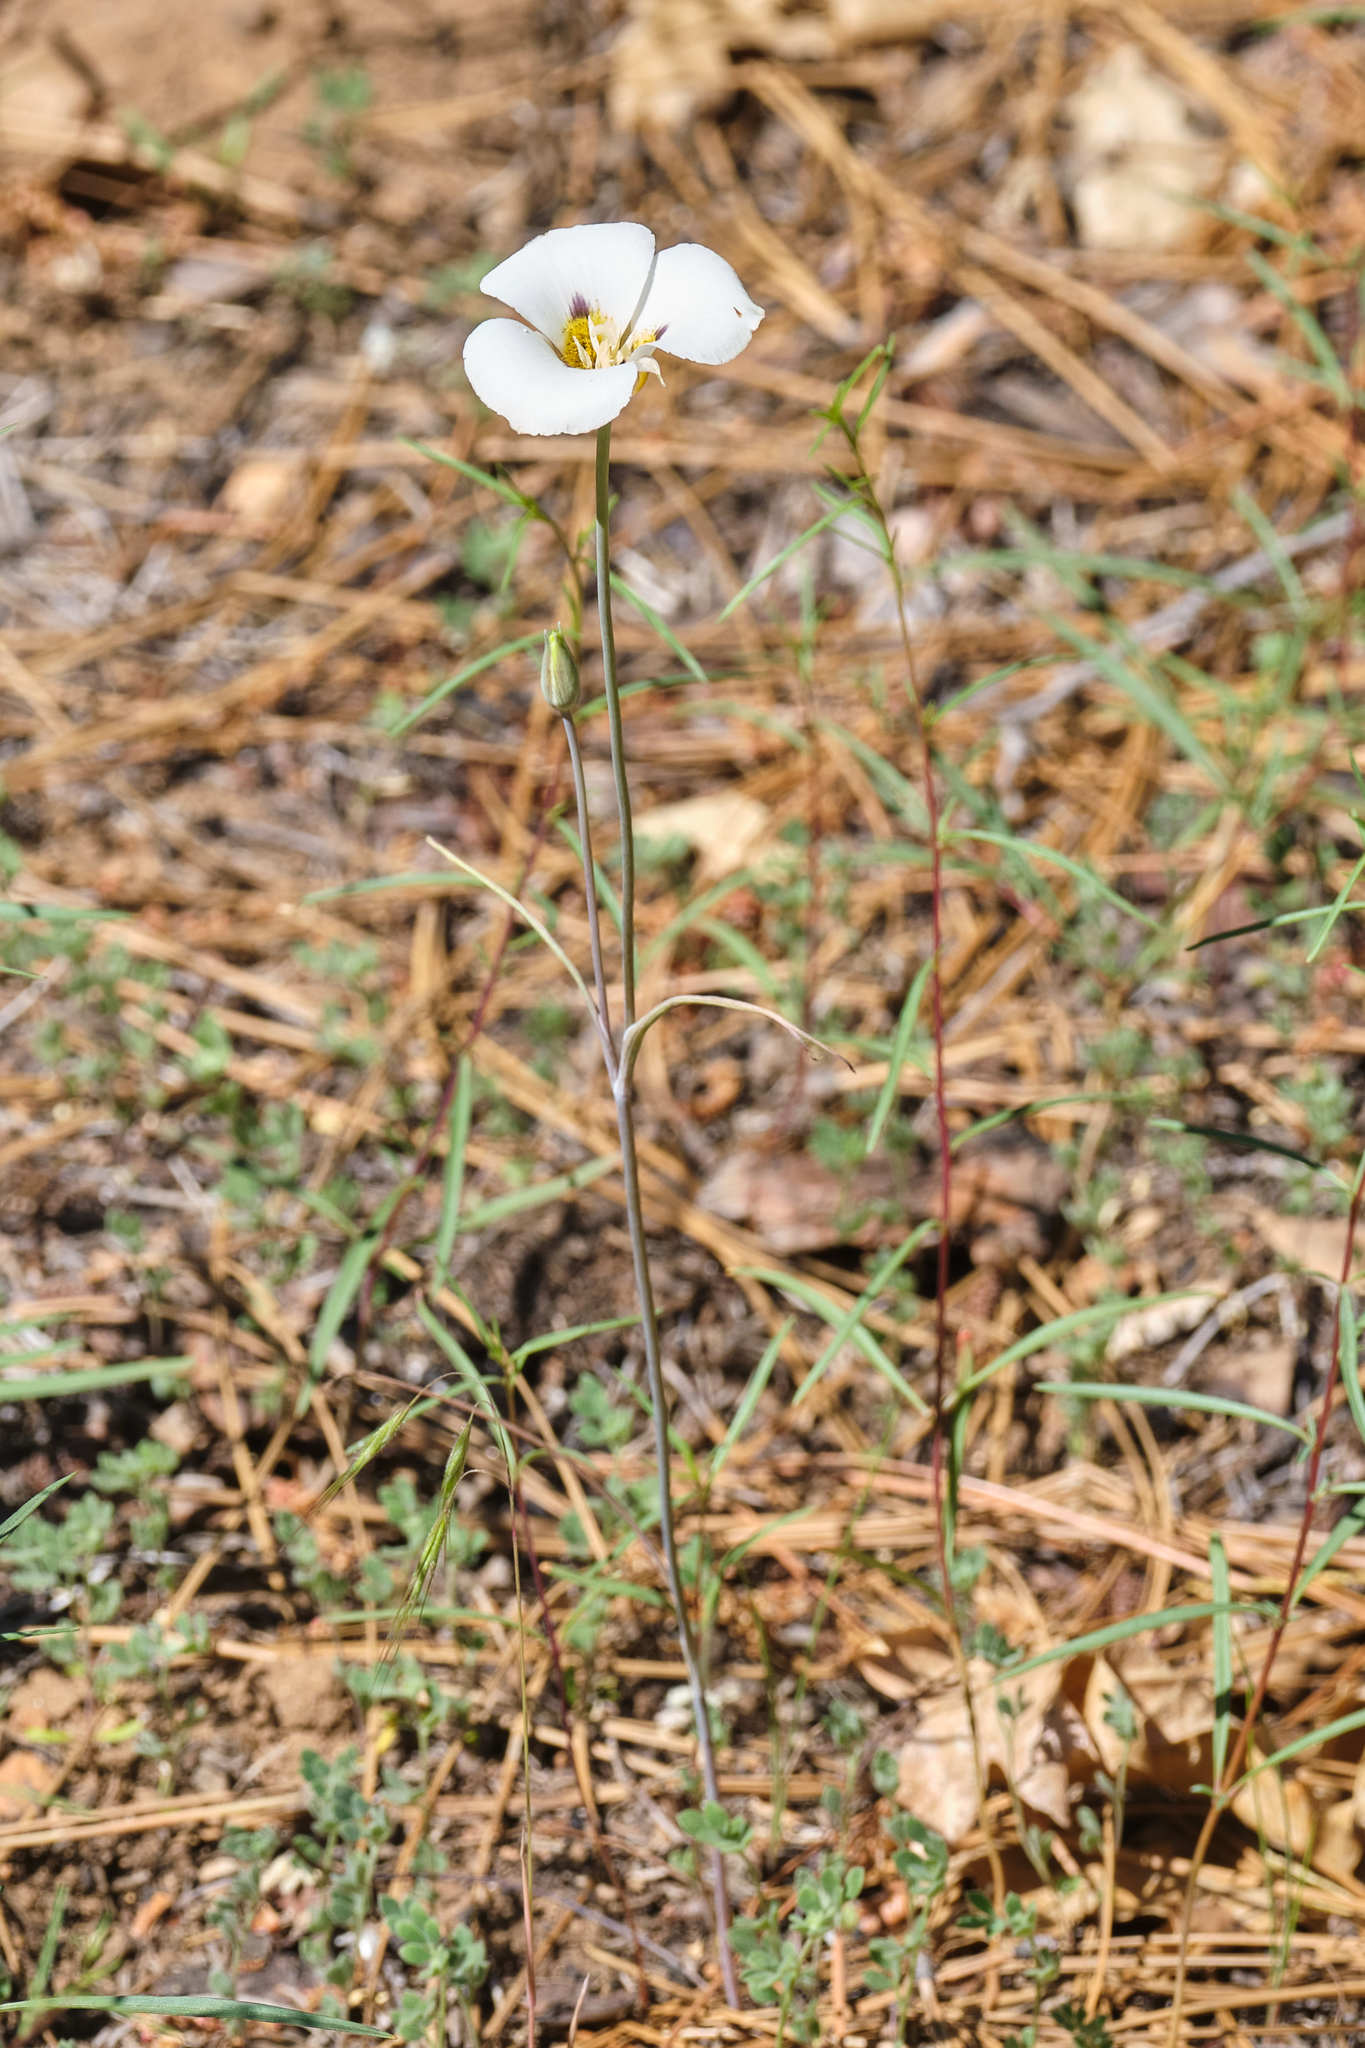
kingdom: Plantae
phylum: Tracheophyta
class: Liliopsida
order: Liliales
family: Liliaceae
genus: Calochortus
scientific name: Calochortus leichtlinii
